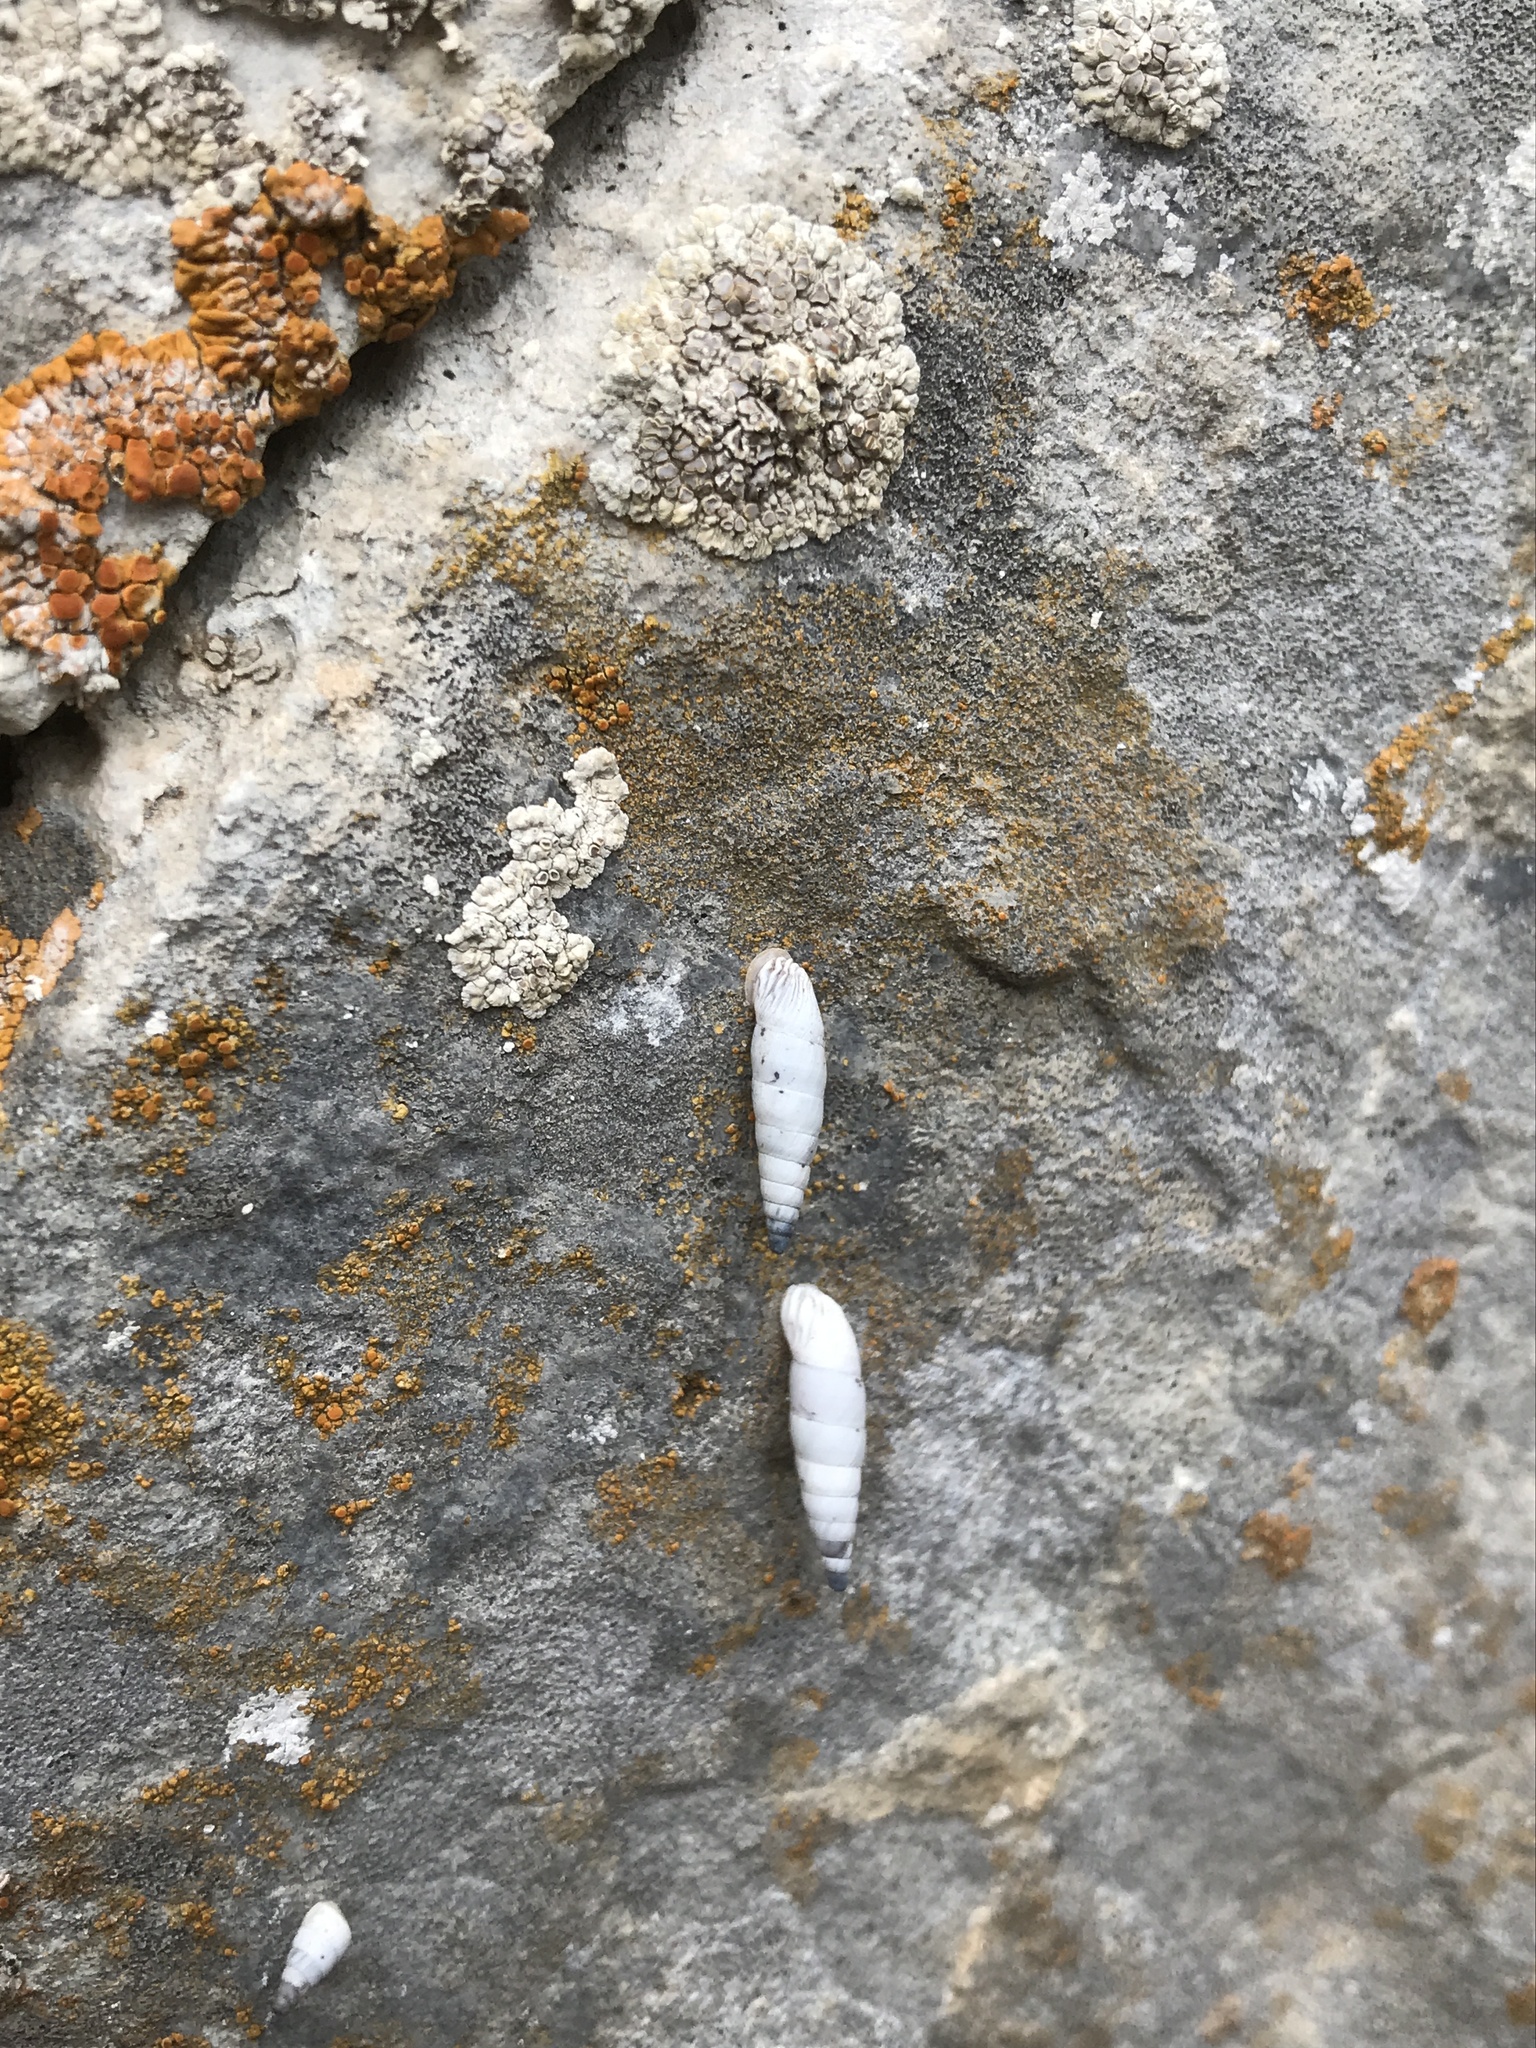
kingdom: Animalia
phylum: Mollusca
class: Gastropoda
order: Stylommatophora
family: Clausiliidae
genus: Albinaria
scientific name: Albinaria caerulea
